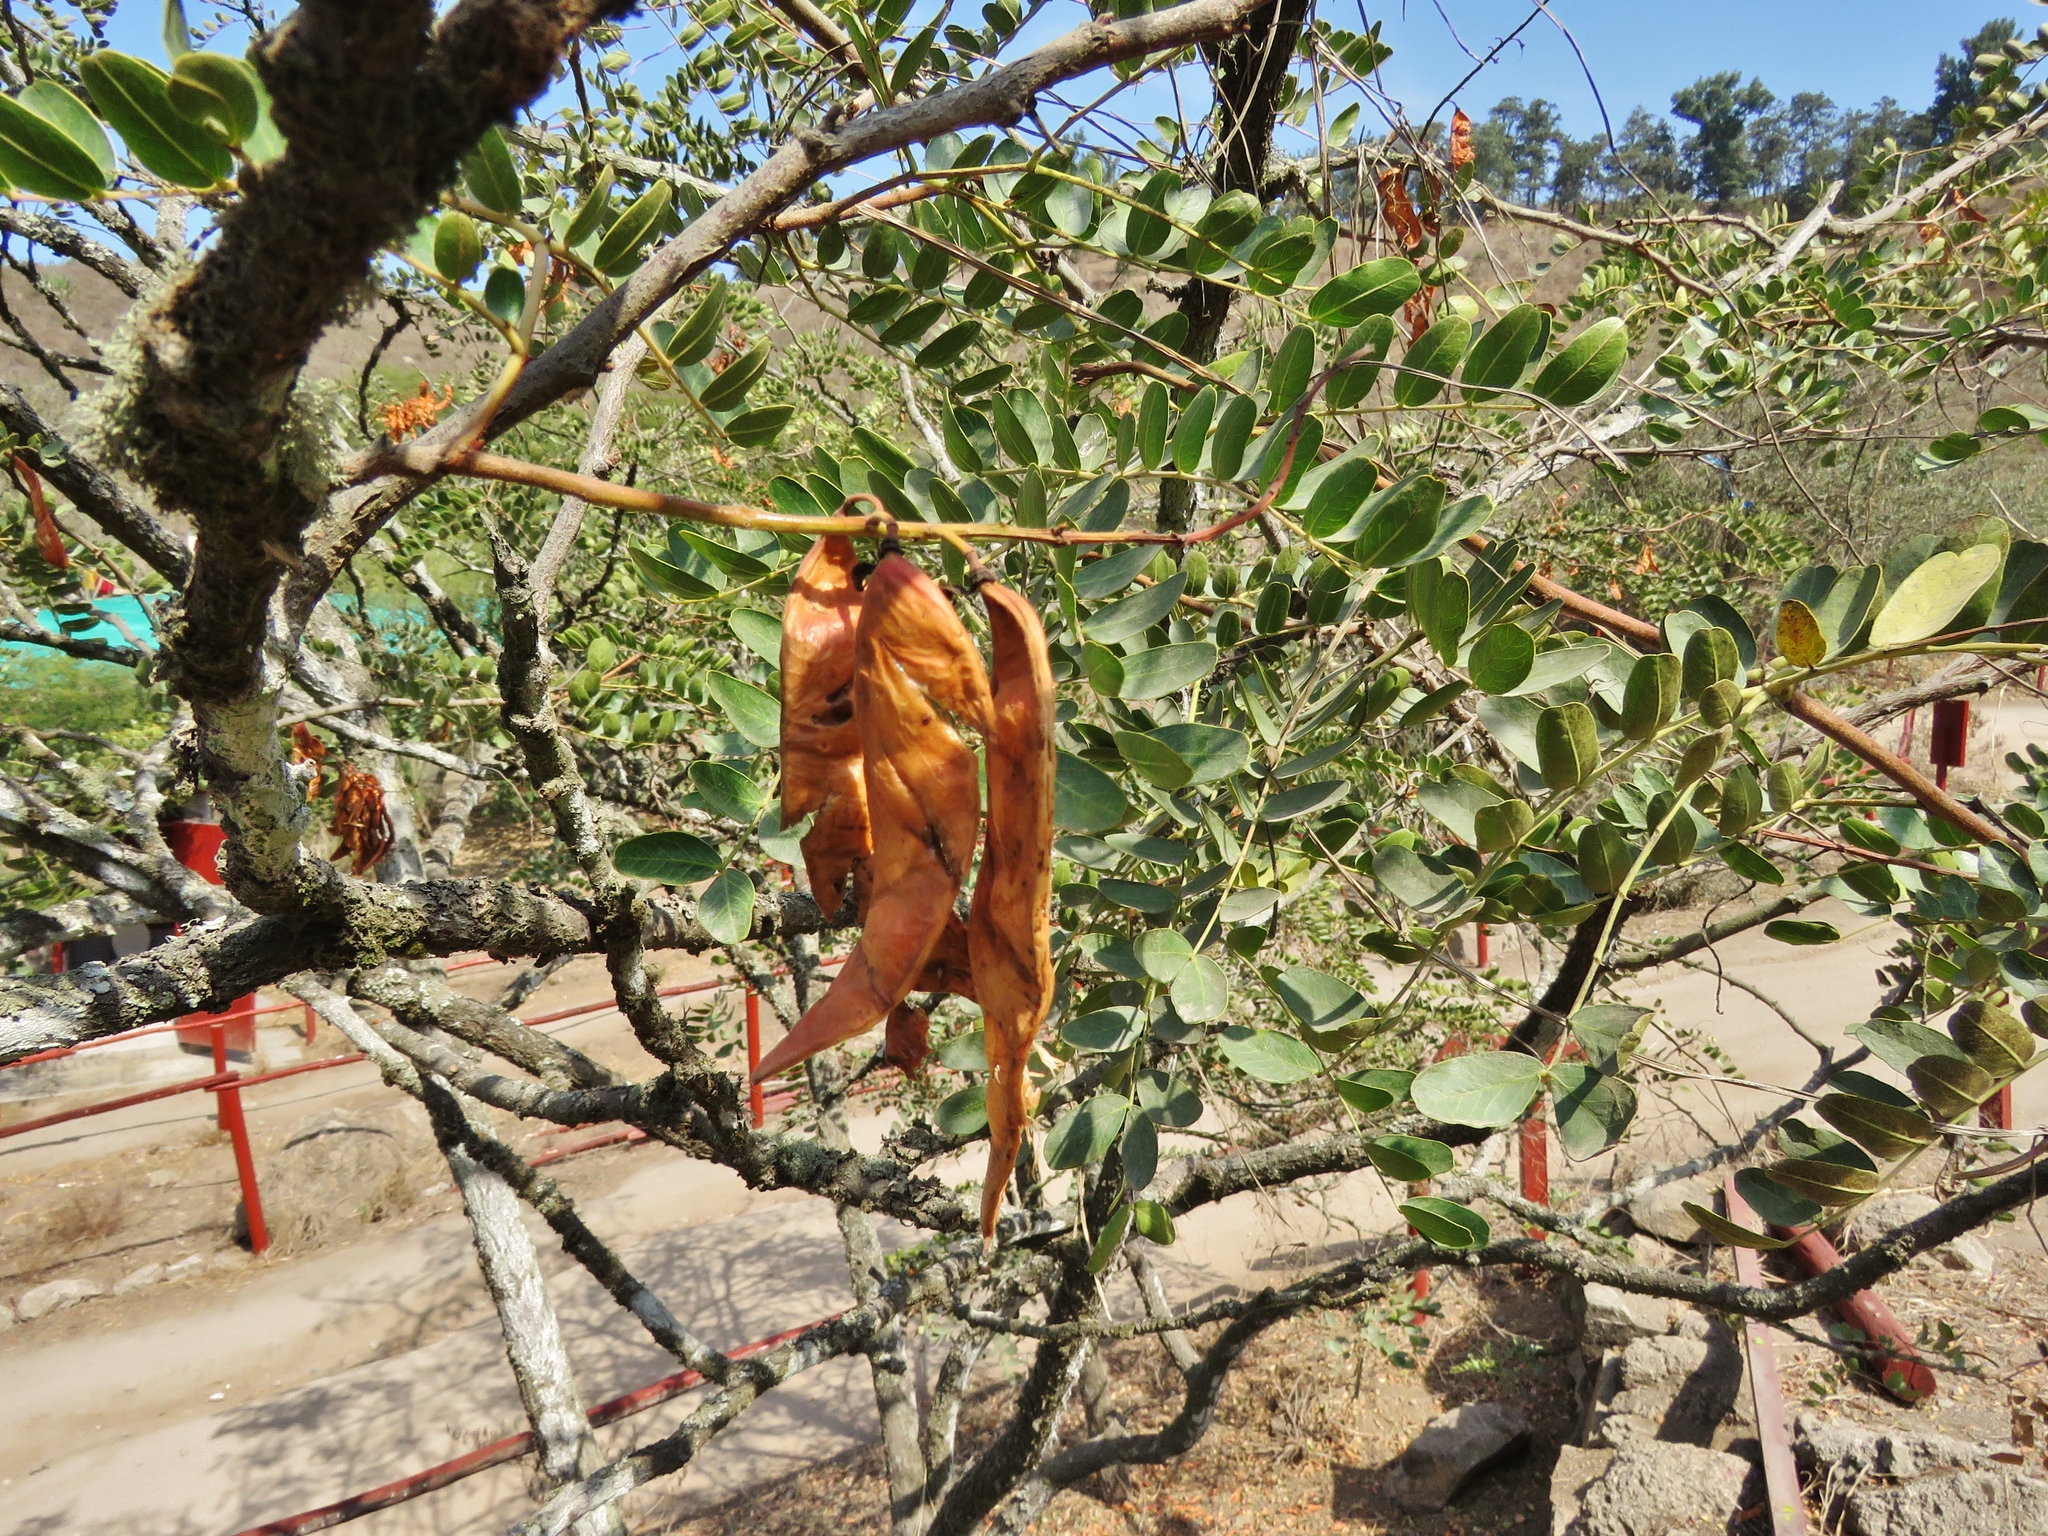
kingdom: Plantae
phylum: Tracheophyta
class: Magnoliopsida
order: Fabales
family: Fabaceae
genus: Tara
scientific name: Tara spinosa
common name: Spiny holdback
